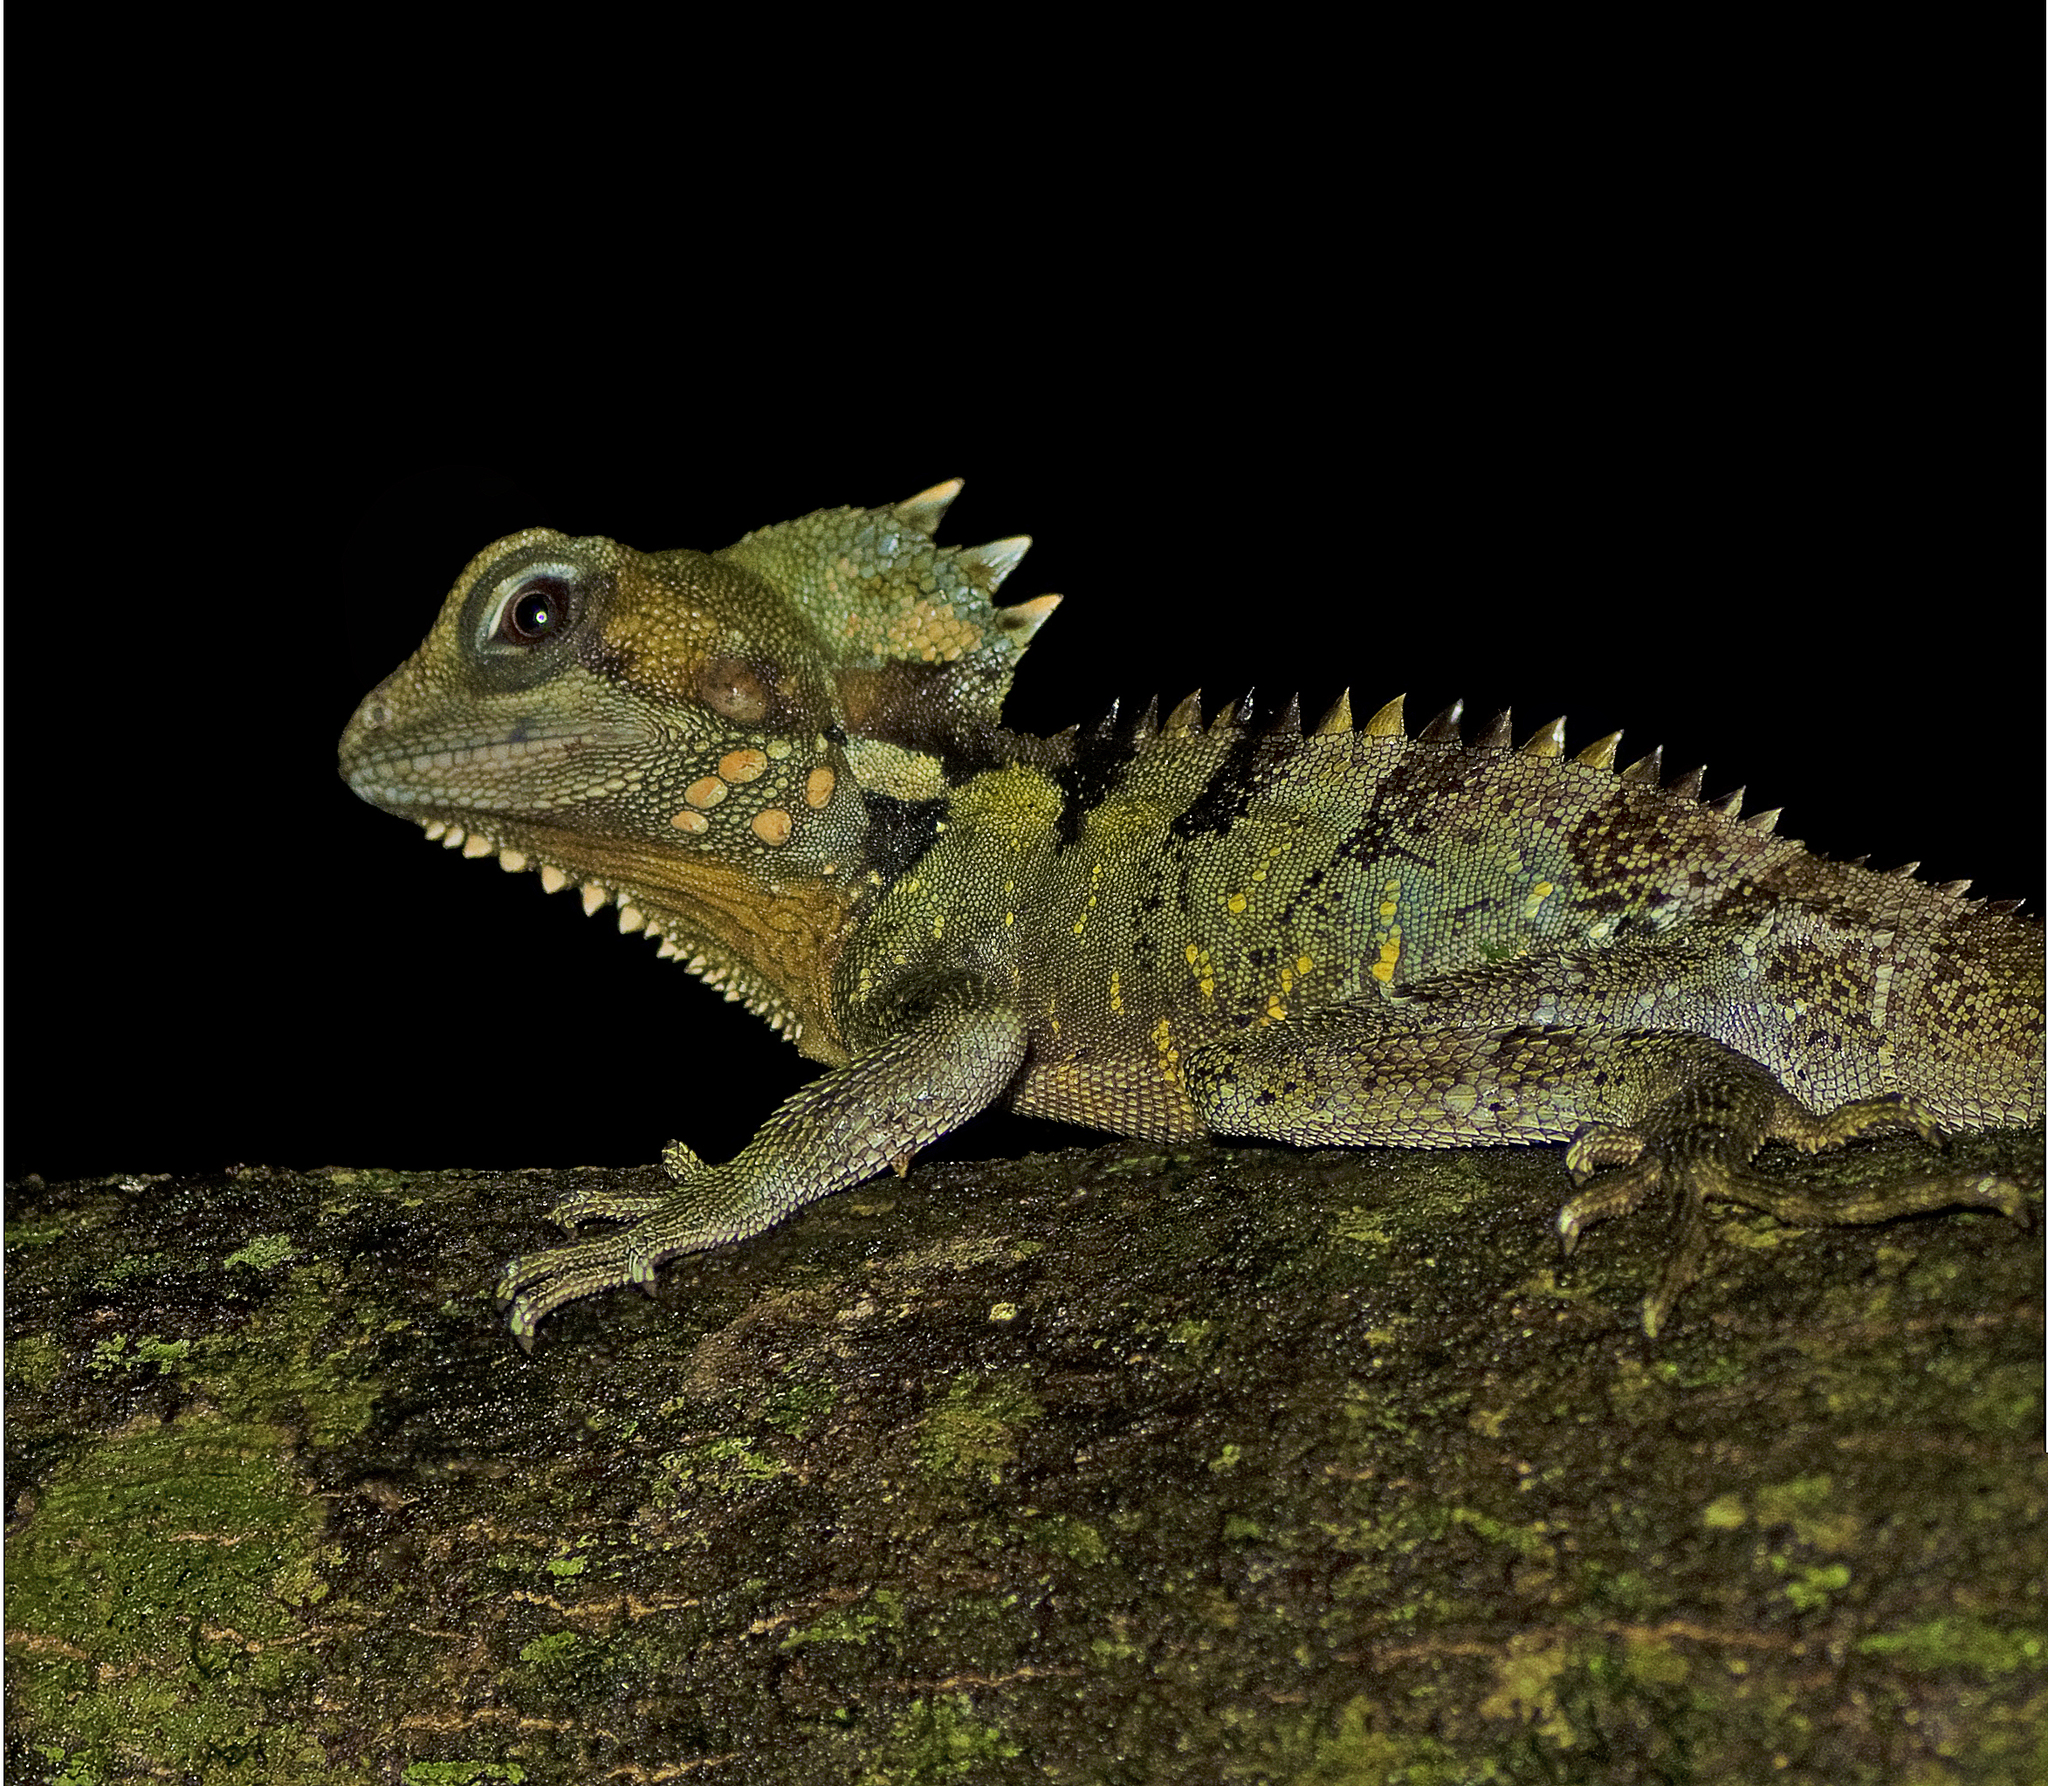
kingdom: Animalia
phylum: Chordata
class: Squamata
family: Agamidae
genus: Lophosaurus
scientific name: Lophosaurus boydii
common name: Boyd's forest dragon
